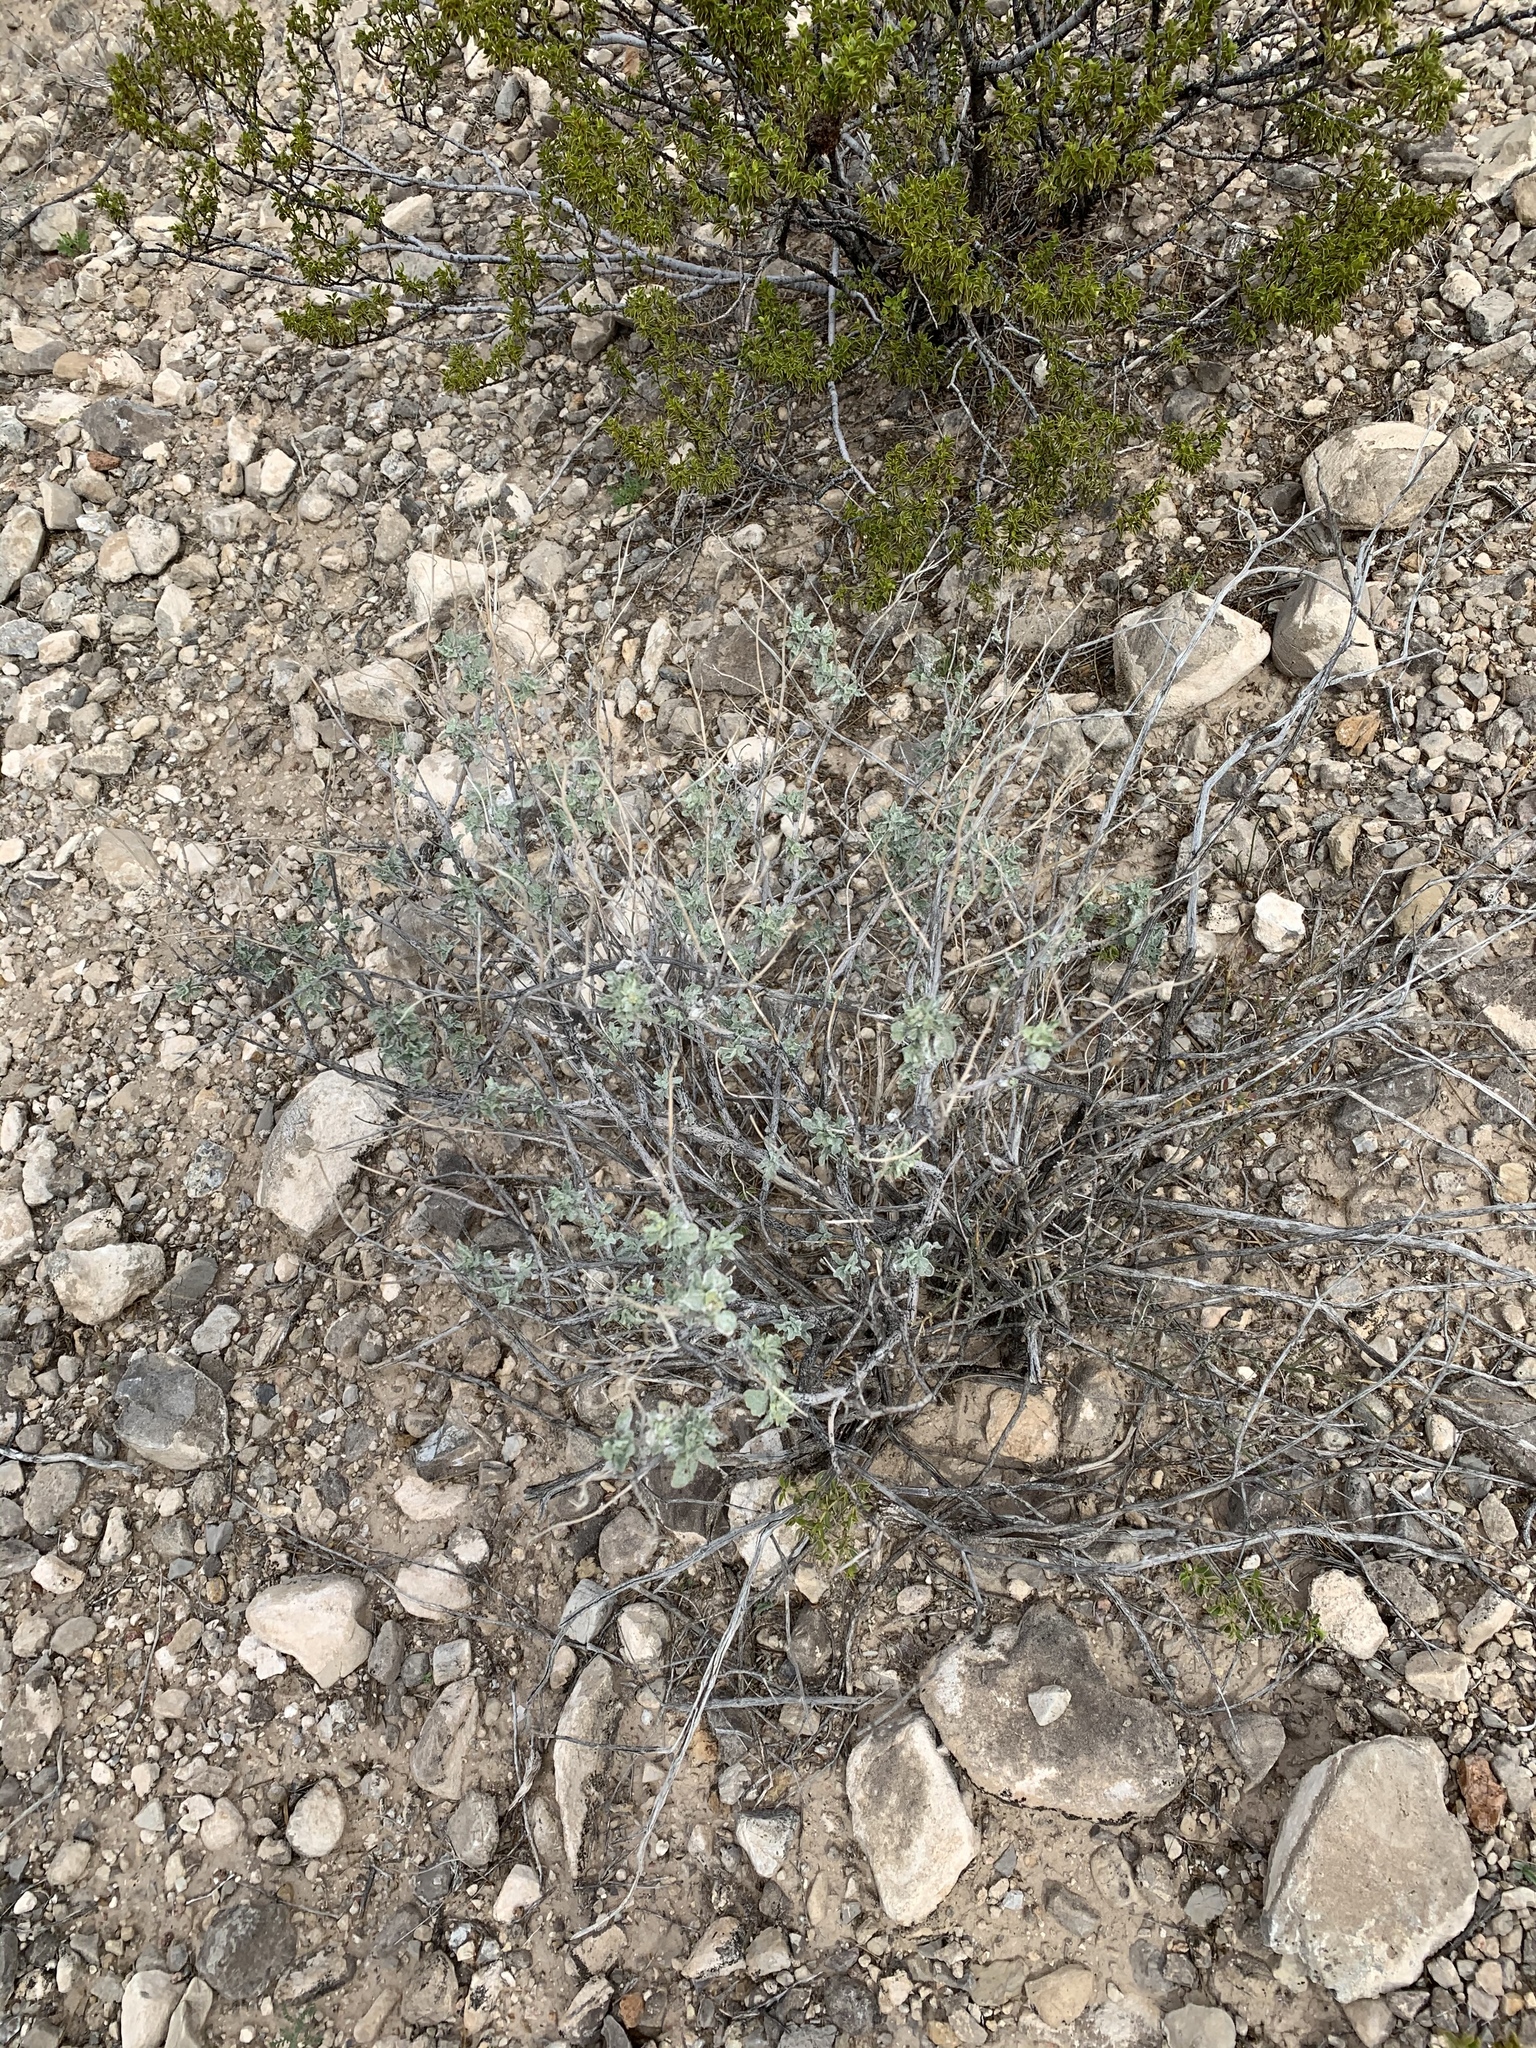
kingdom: Plantae
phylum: Tracheophyta
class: Magnoliopsida
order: Asterales
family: Asteraceae
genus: Parthenium
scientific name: Parthenium incanum
